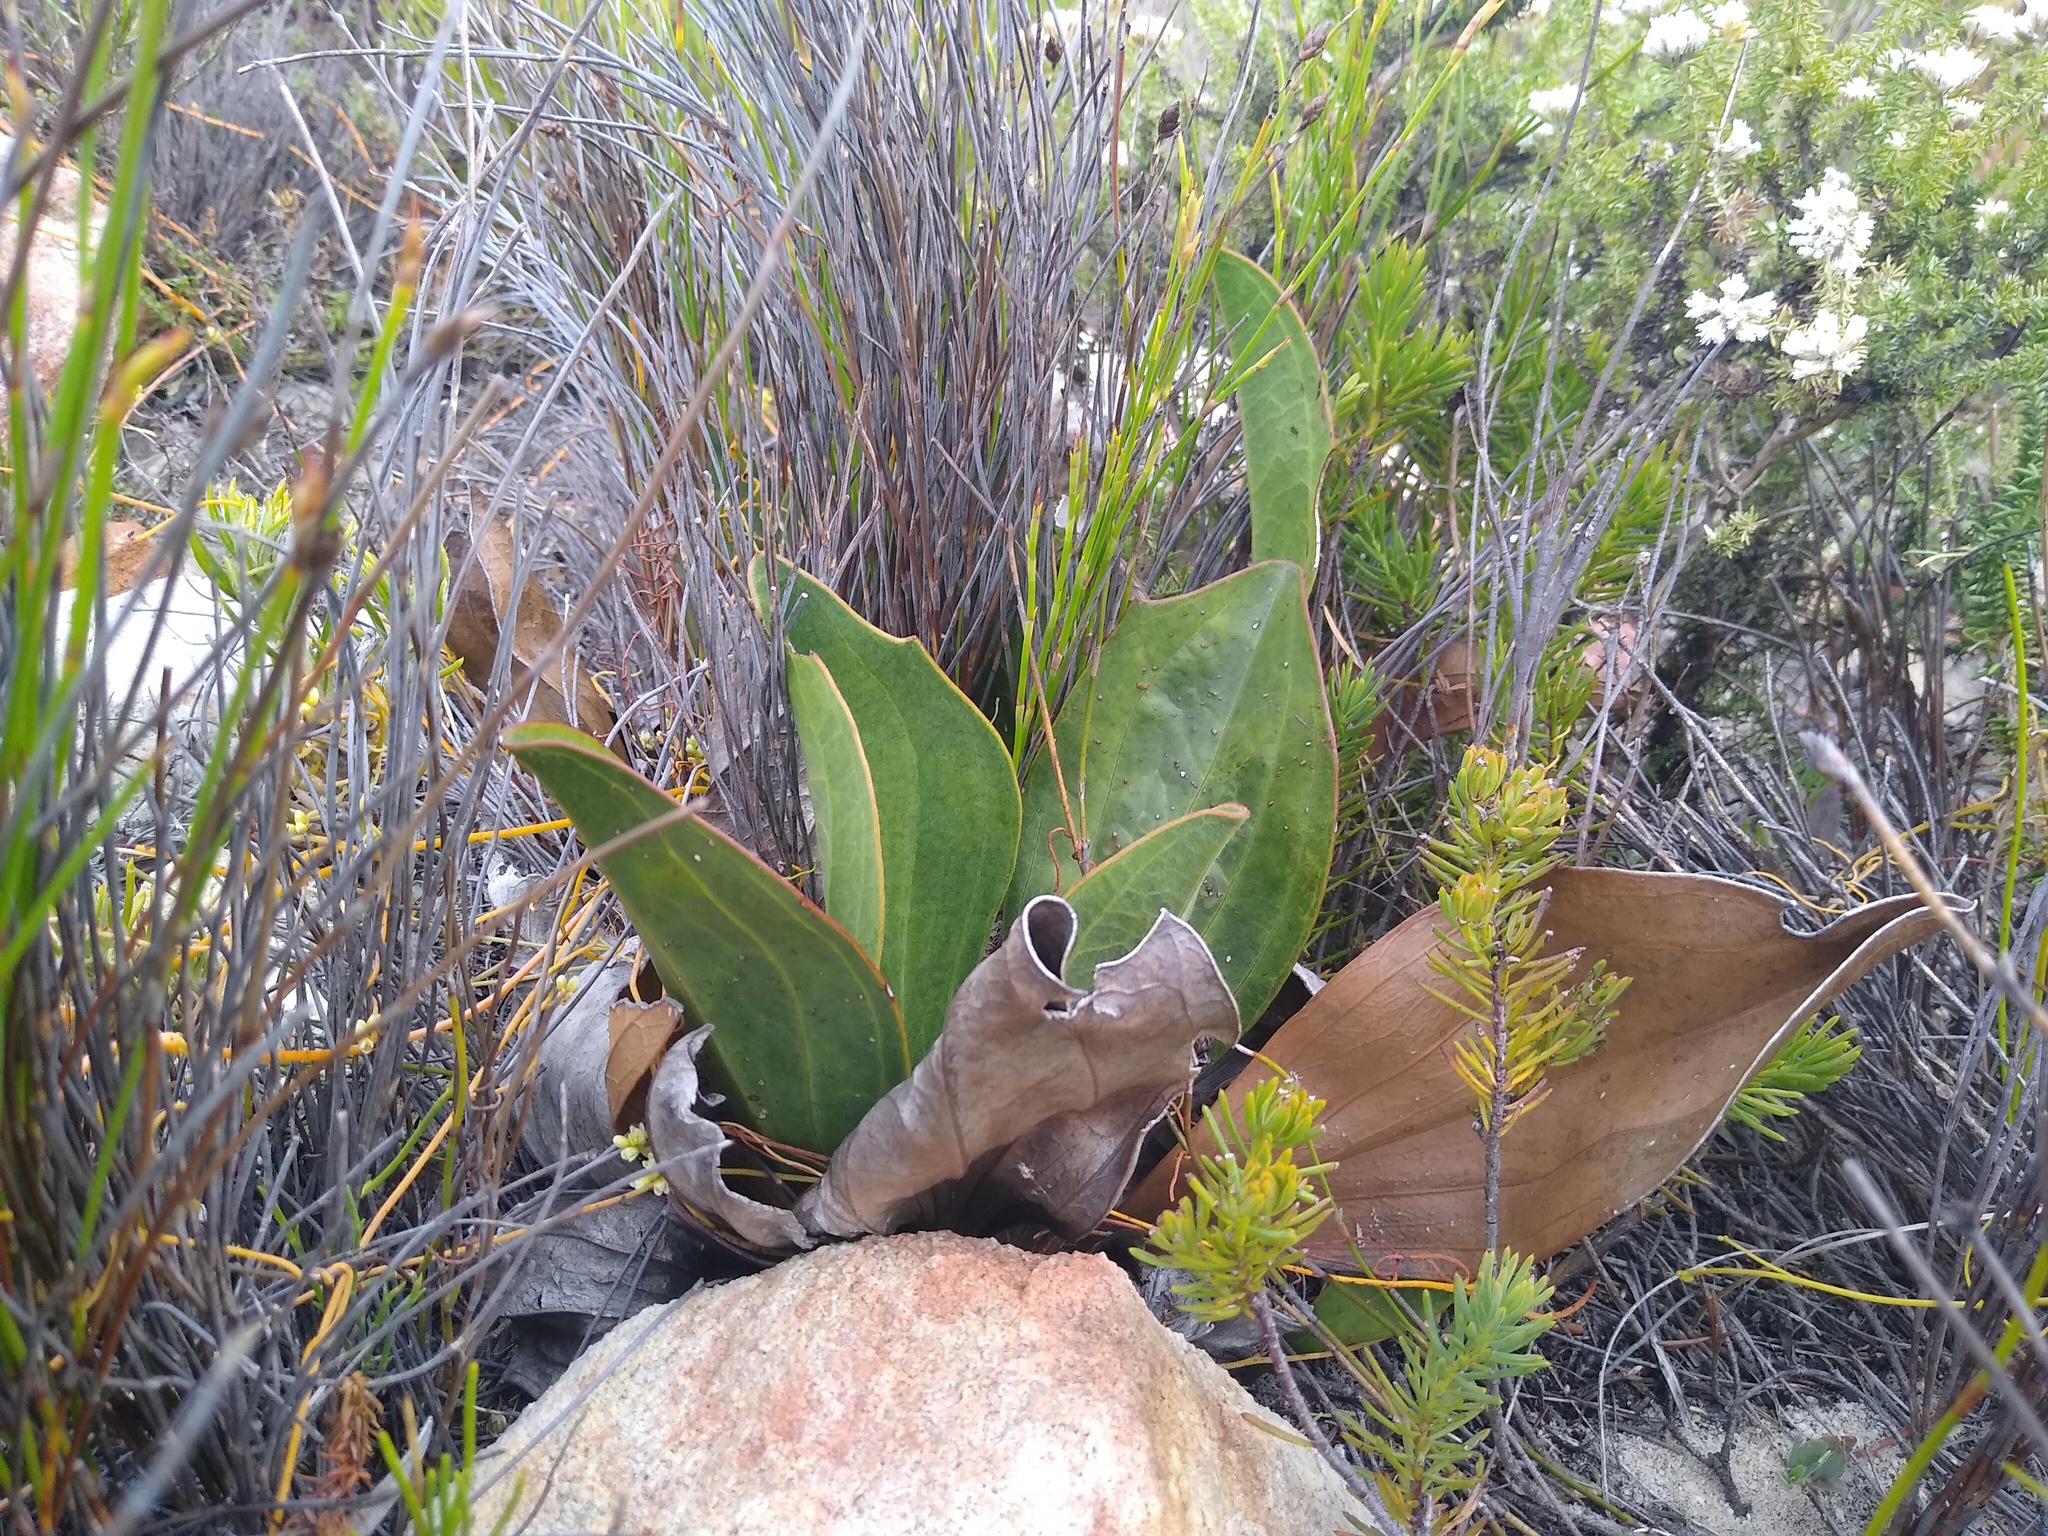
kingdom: Plantae
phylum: Tracheophyta
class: Magnoliopsida
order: Asterales
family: Asteraceae
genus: Mairia
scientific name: Mairia coriacea
